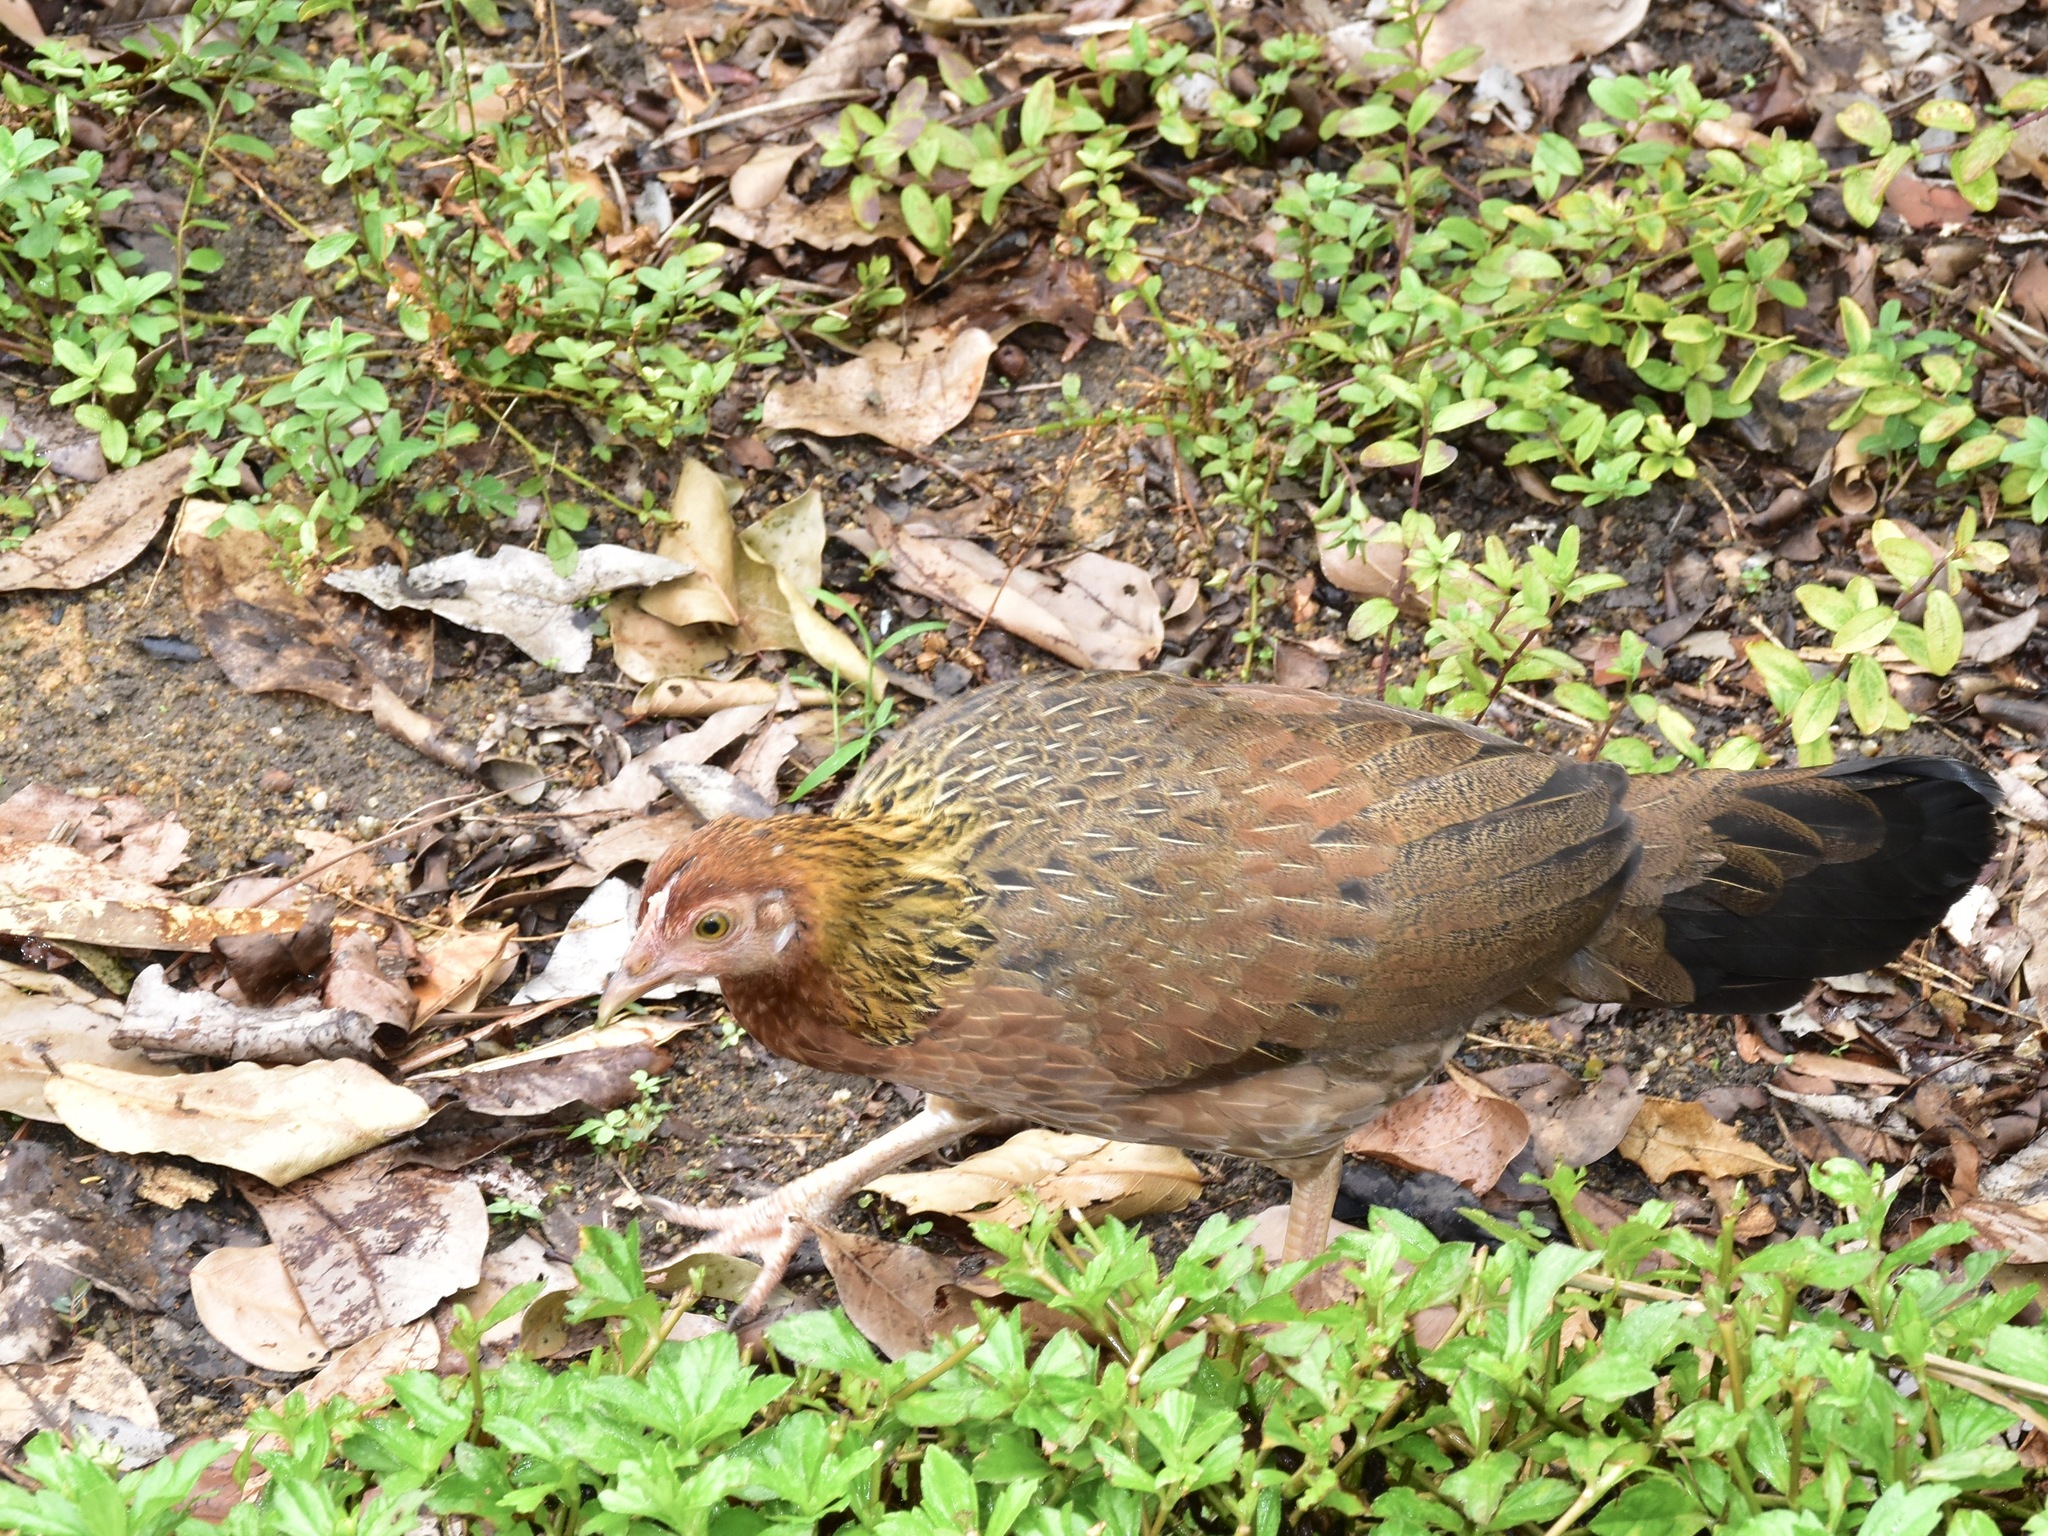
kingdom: Animalia
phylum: Chordata
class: Aves
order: Galliformes
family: Phasianidae
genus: Gallus
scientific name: Gallus gallus
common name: Red junglefowl
